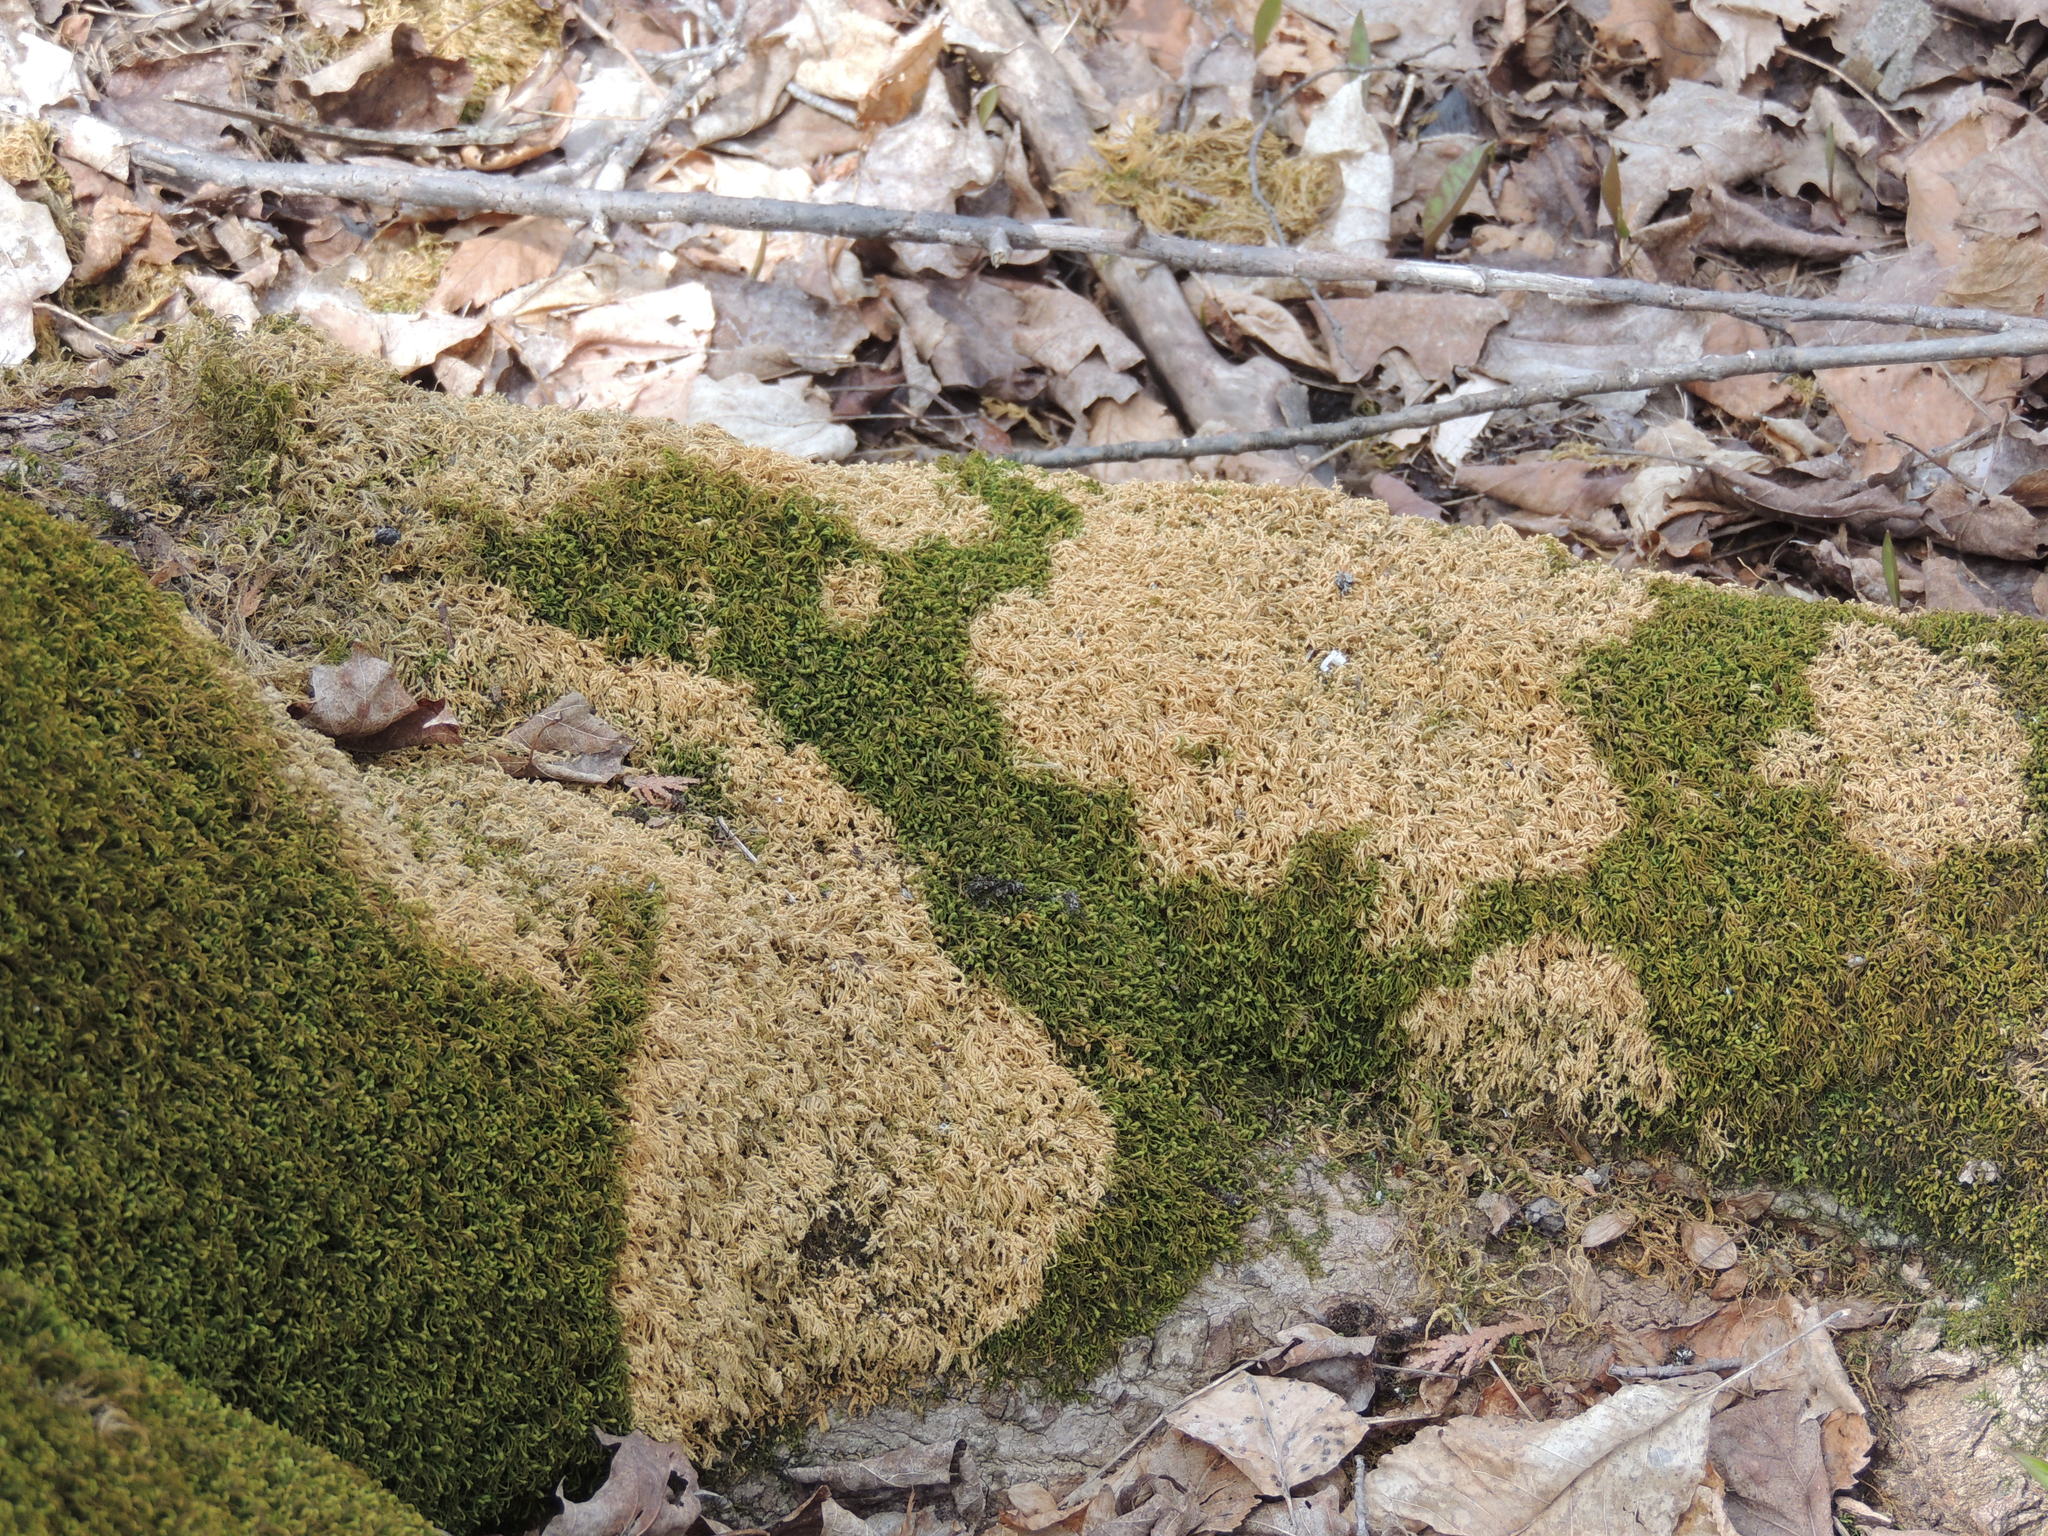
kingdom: Plantae
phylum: Bryophyta
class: Bryopsida
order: Hypnales
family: Neckeraceae
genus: Pseudanomodon
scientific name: Pseudanomodon attenuatus
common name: Tree-skirt moss
